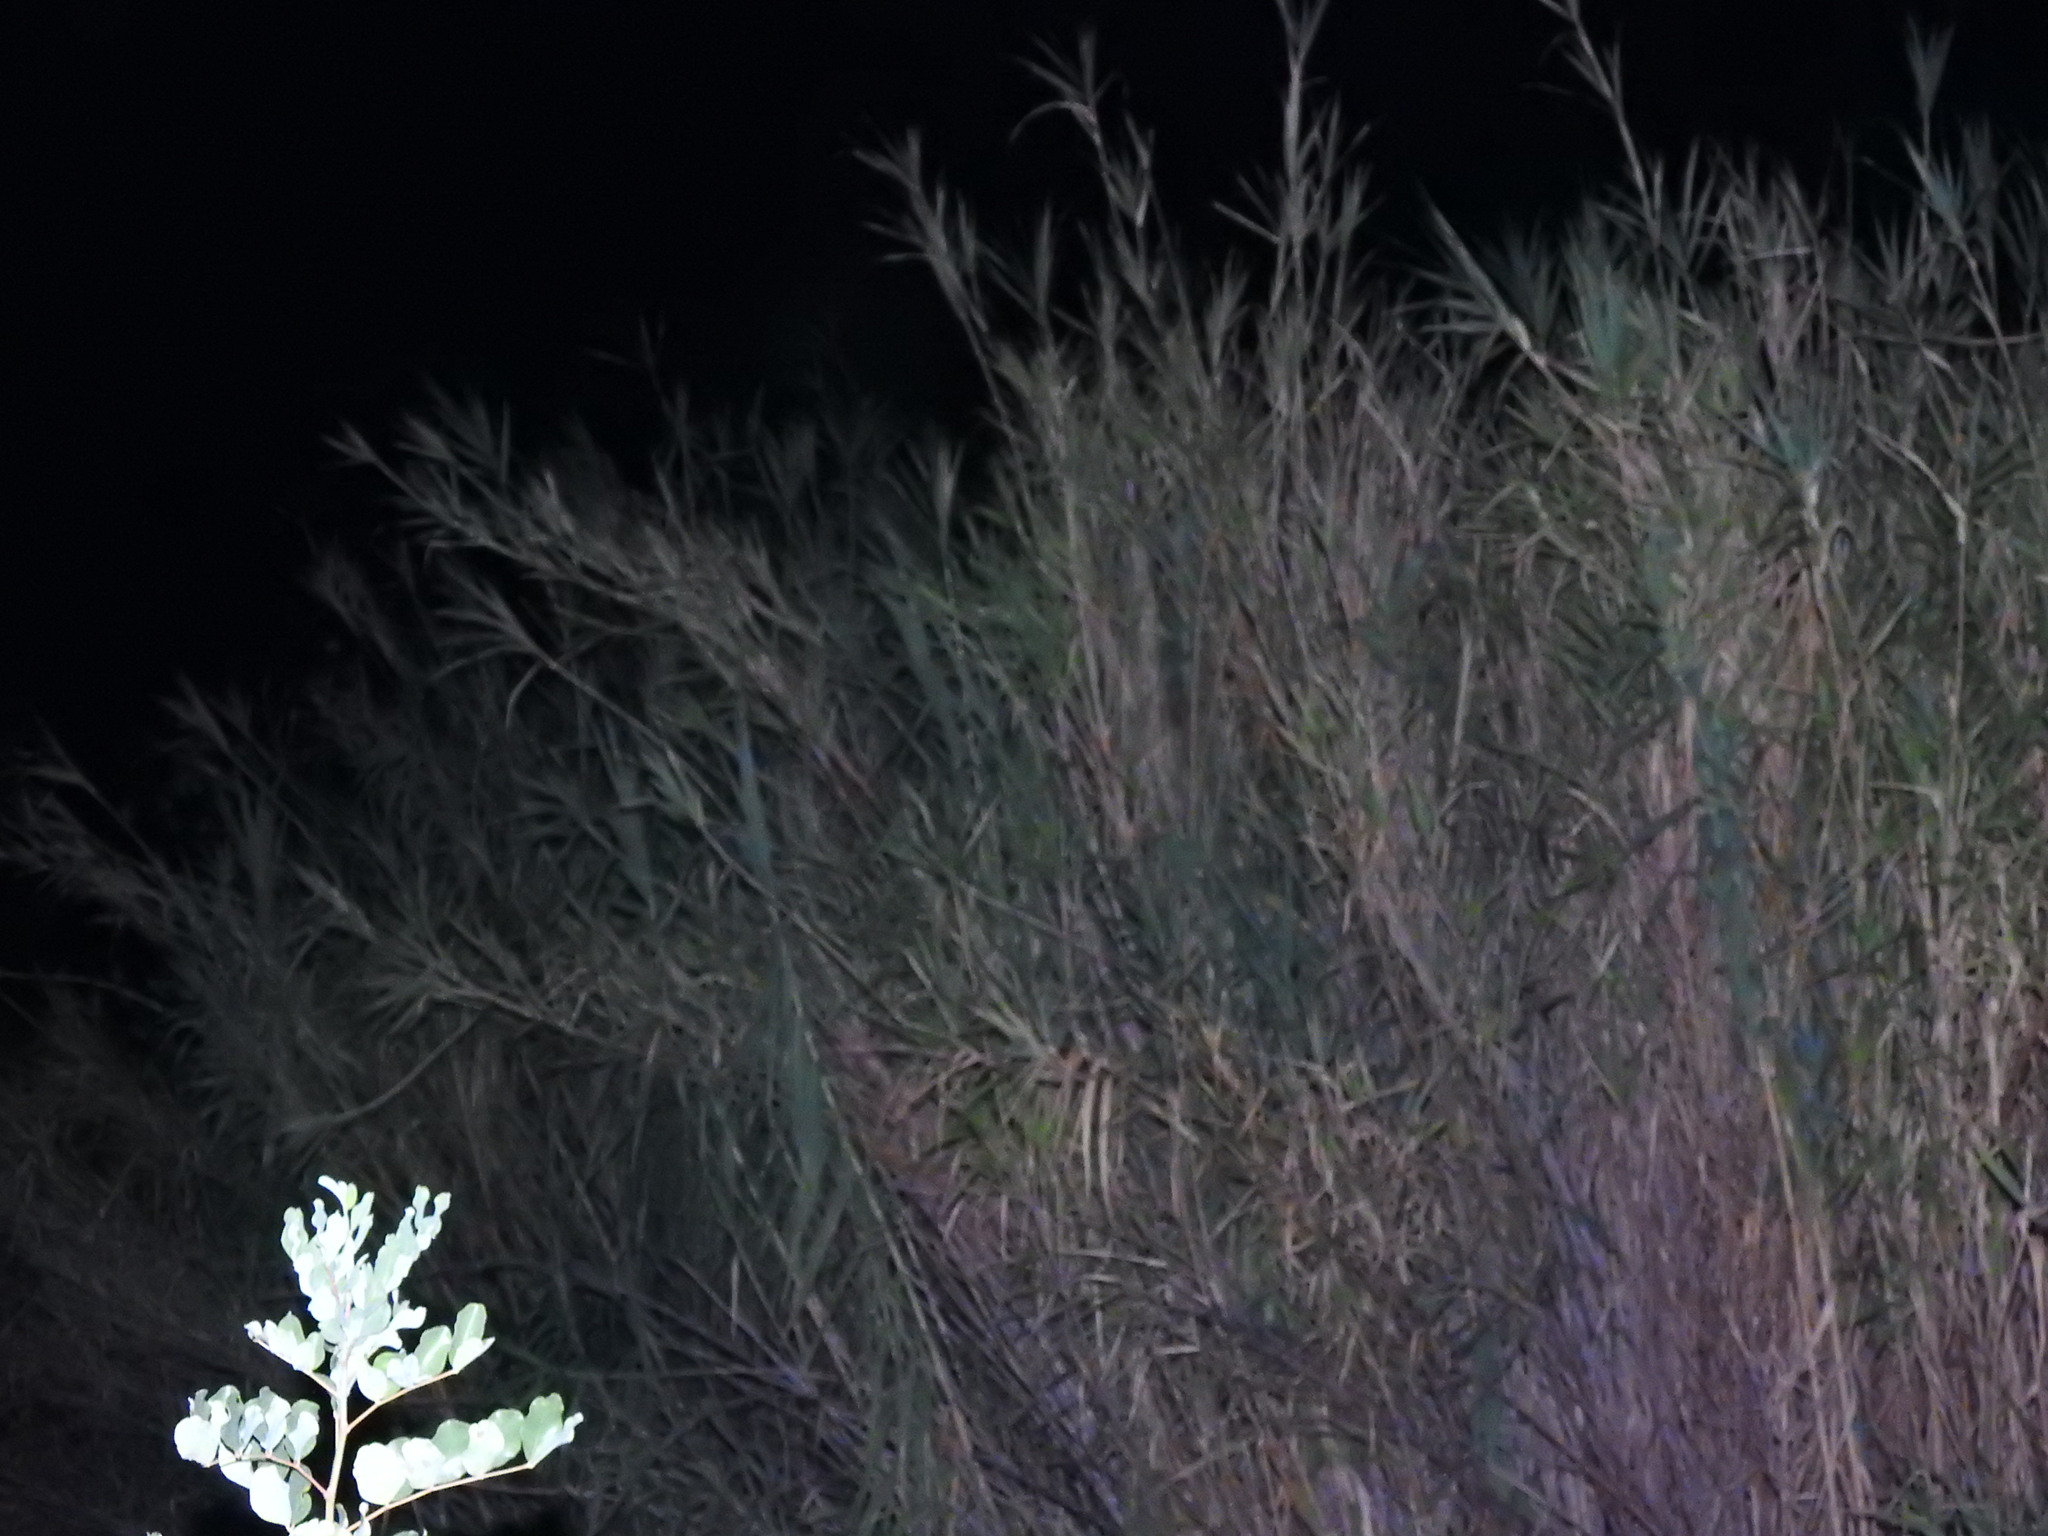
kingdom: Plantae
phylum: Tracheophyta
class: Liliopsida
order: Poales
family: Poaceae
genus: Arundo
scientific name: Arundo donax
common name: Giant reed
